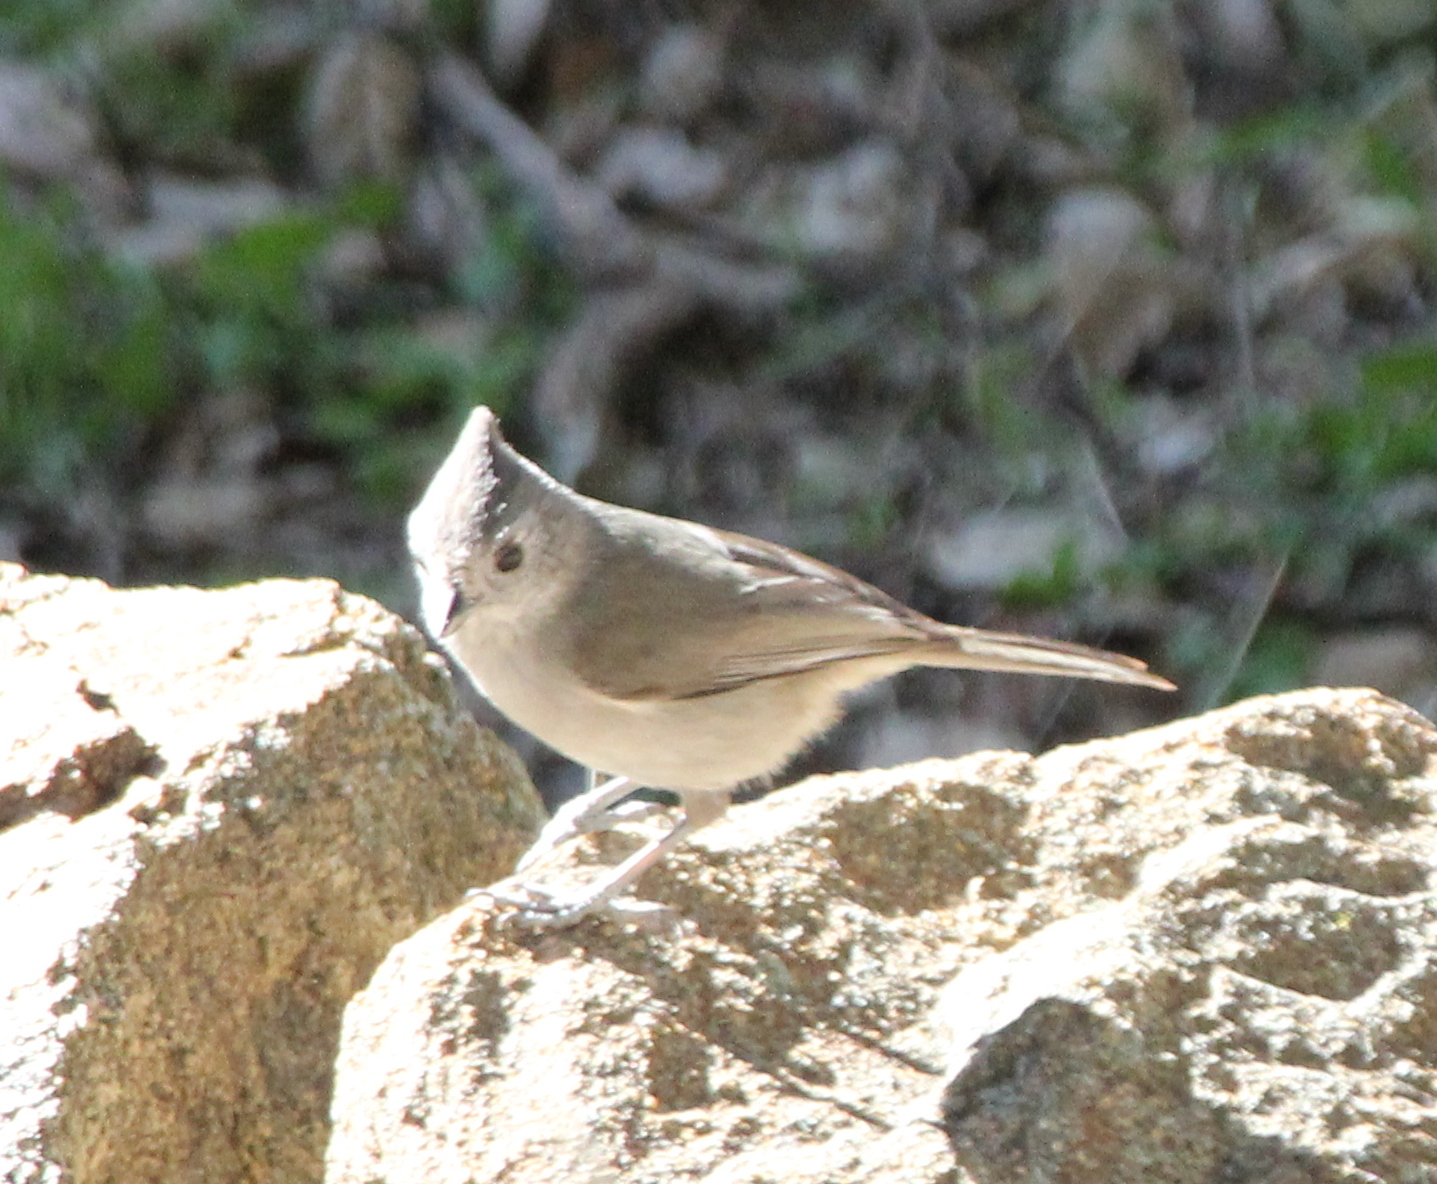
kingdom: Animalia
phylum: Chordata
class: Aves
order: Passeriformes
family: Paridae
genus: Baeolophus
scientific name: Baeolophus inornatus
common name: Oak titmouse
